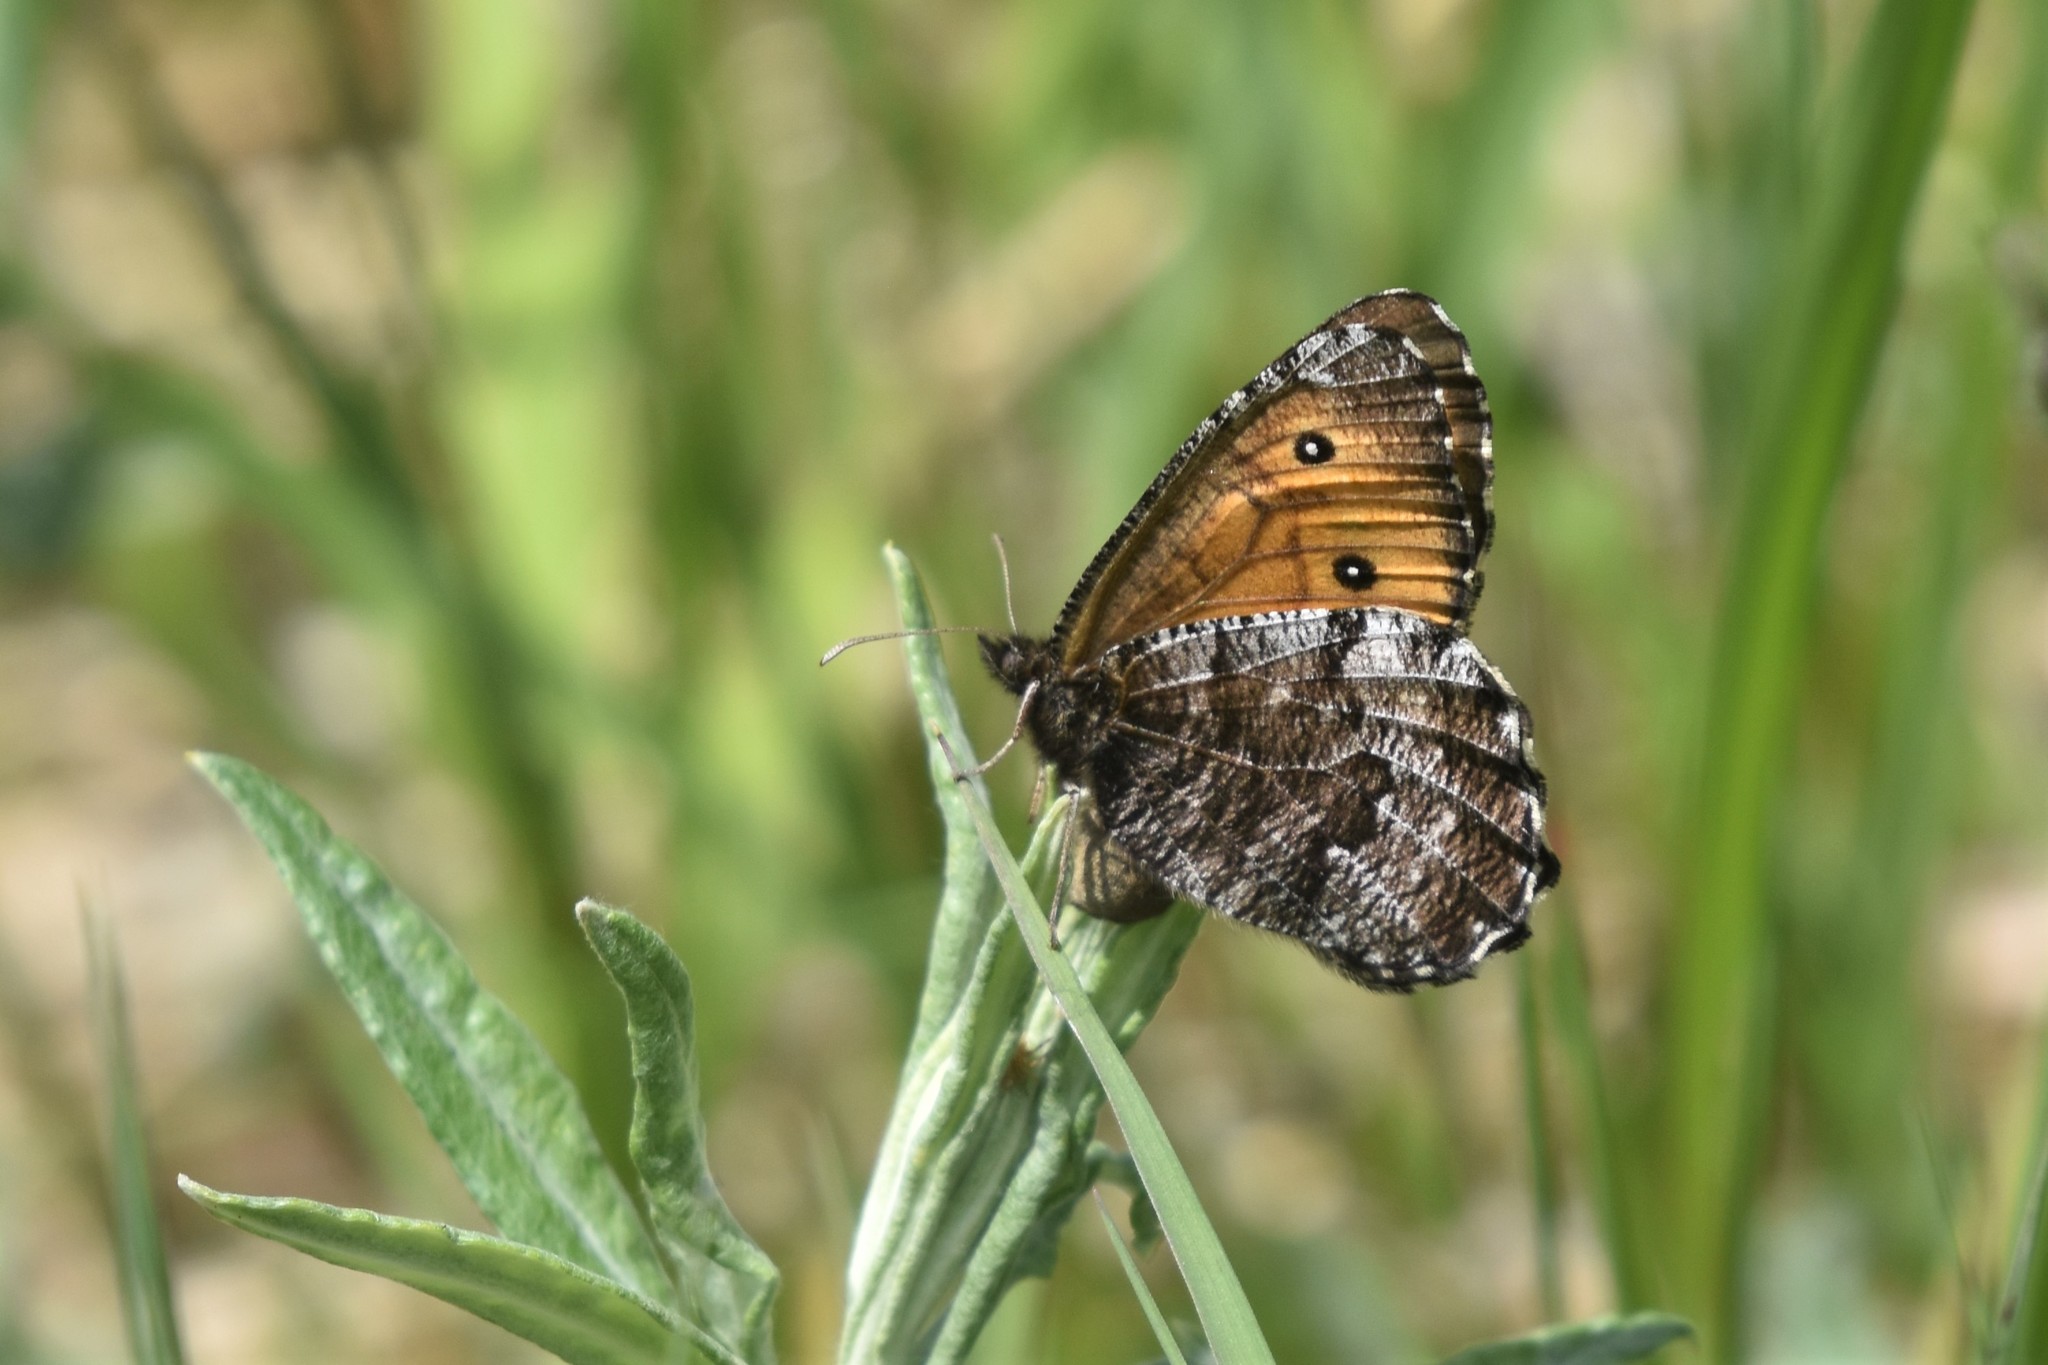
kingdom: Animalia
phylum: Arthropoda
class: Insecta
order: Lepidoptera
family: Nymphalidae
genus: Oeneis
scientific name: Oeneis nevadensis
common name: Great arctic
